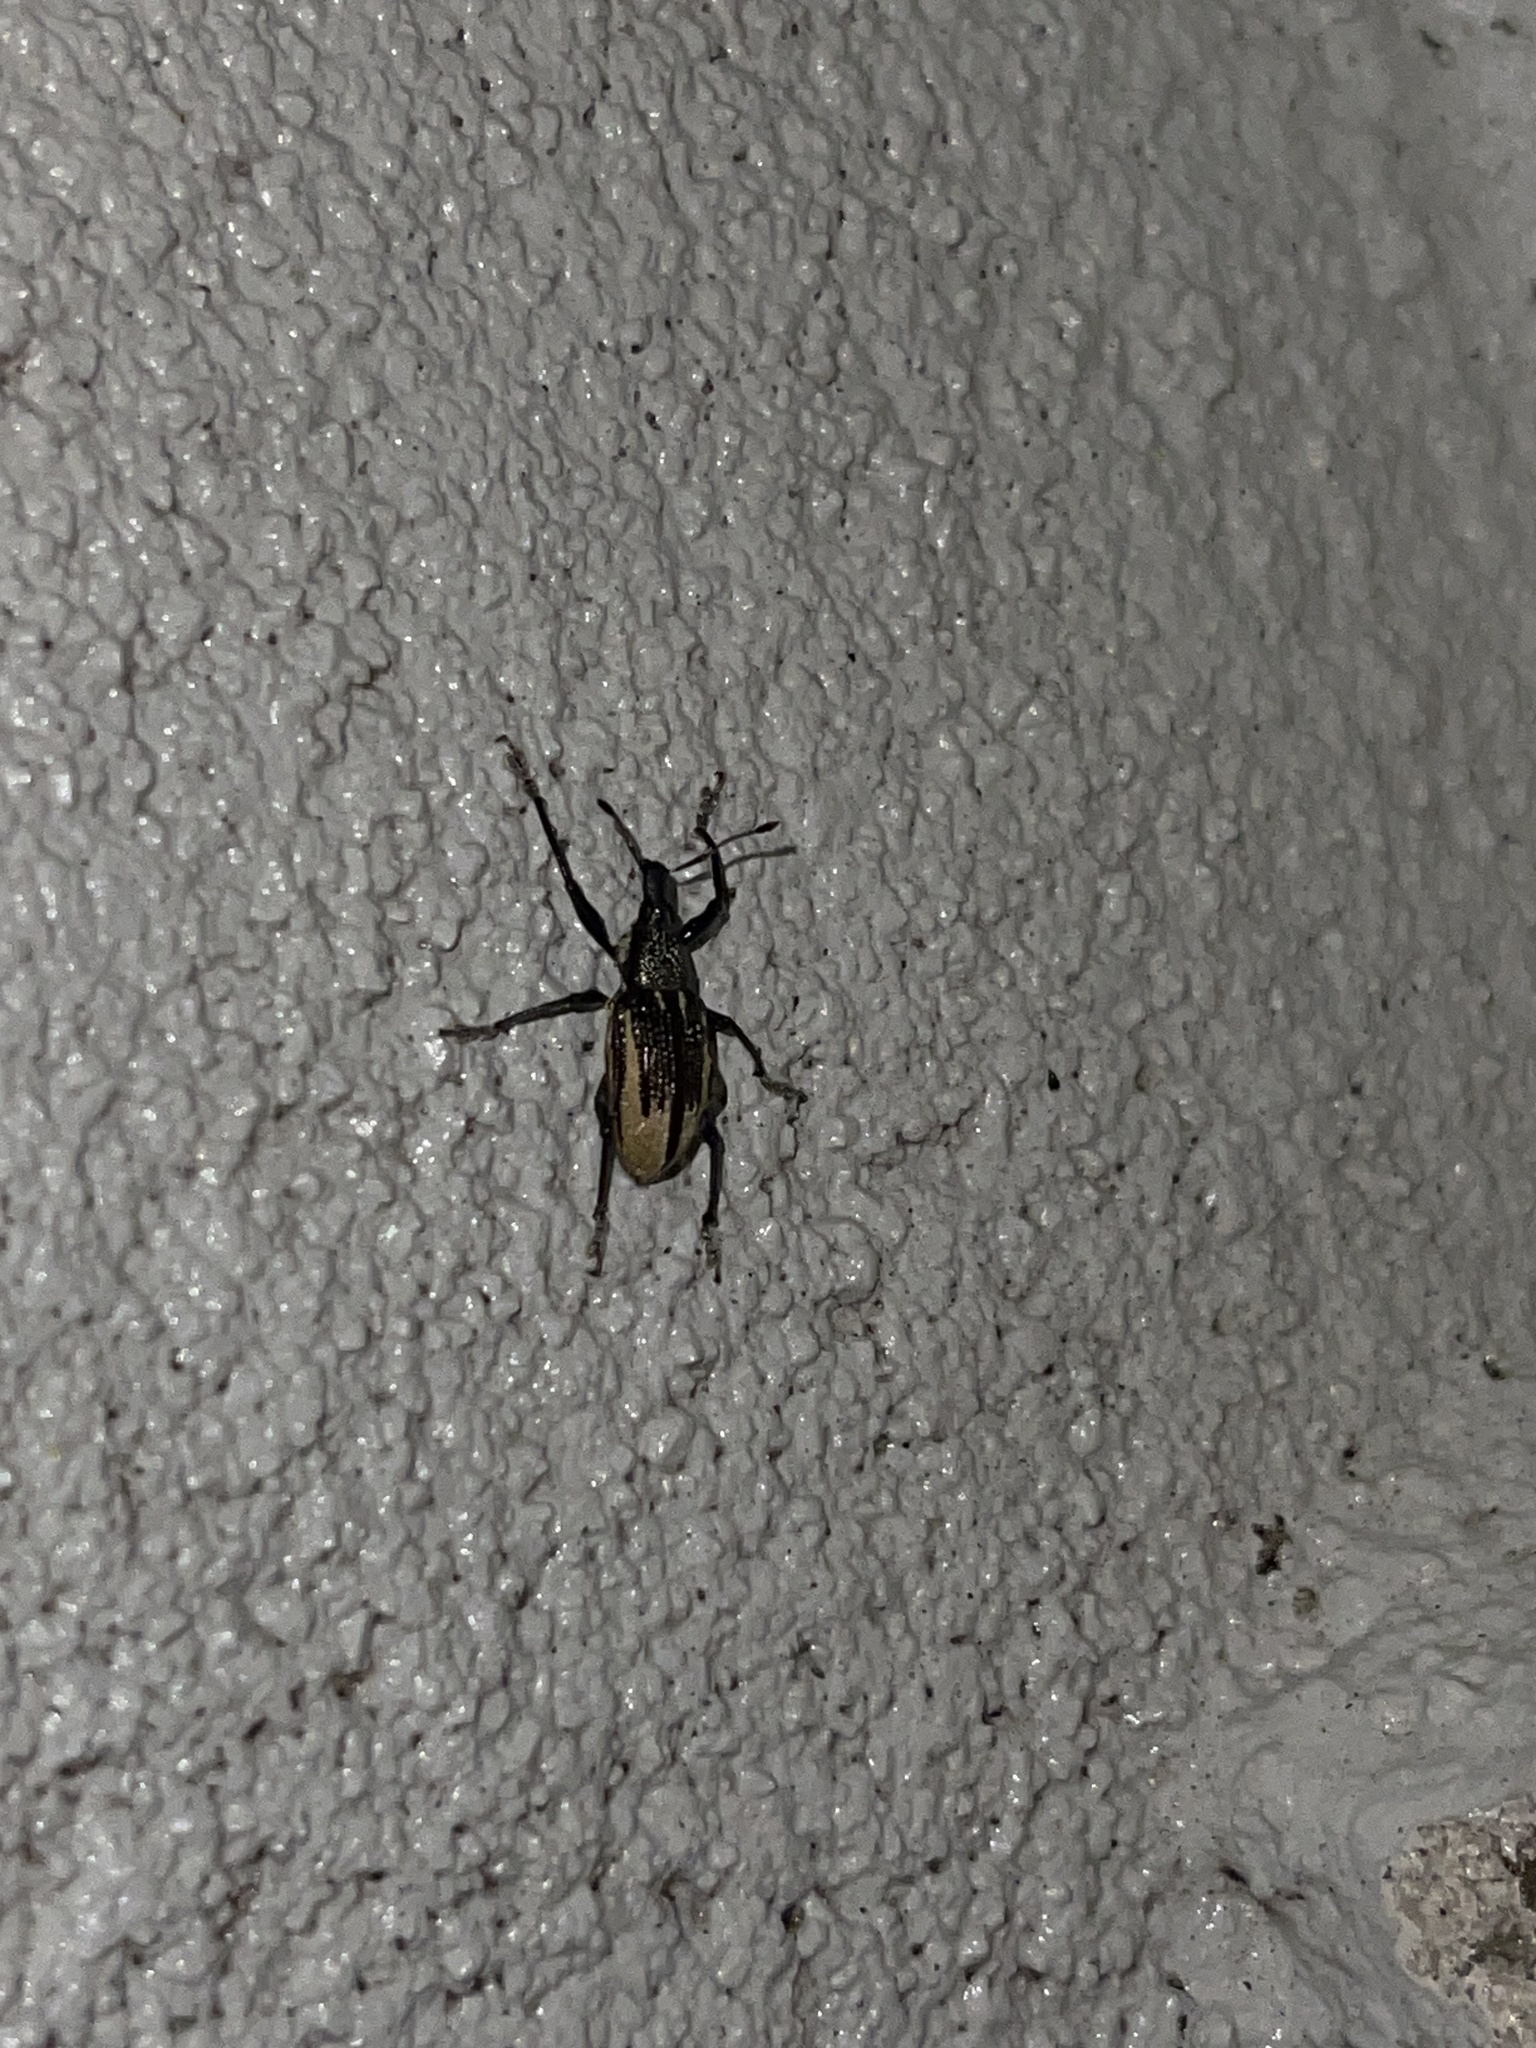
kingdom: Animalia
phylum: Arthropoda
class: Insecta
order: Coleoptera
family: Curculionidae
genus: Diaprepes
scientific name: Diaprepes abbreviatus
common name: Root weevil
